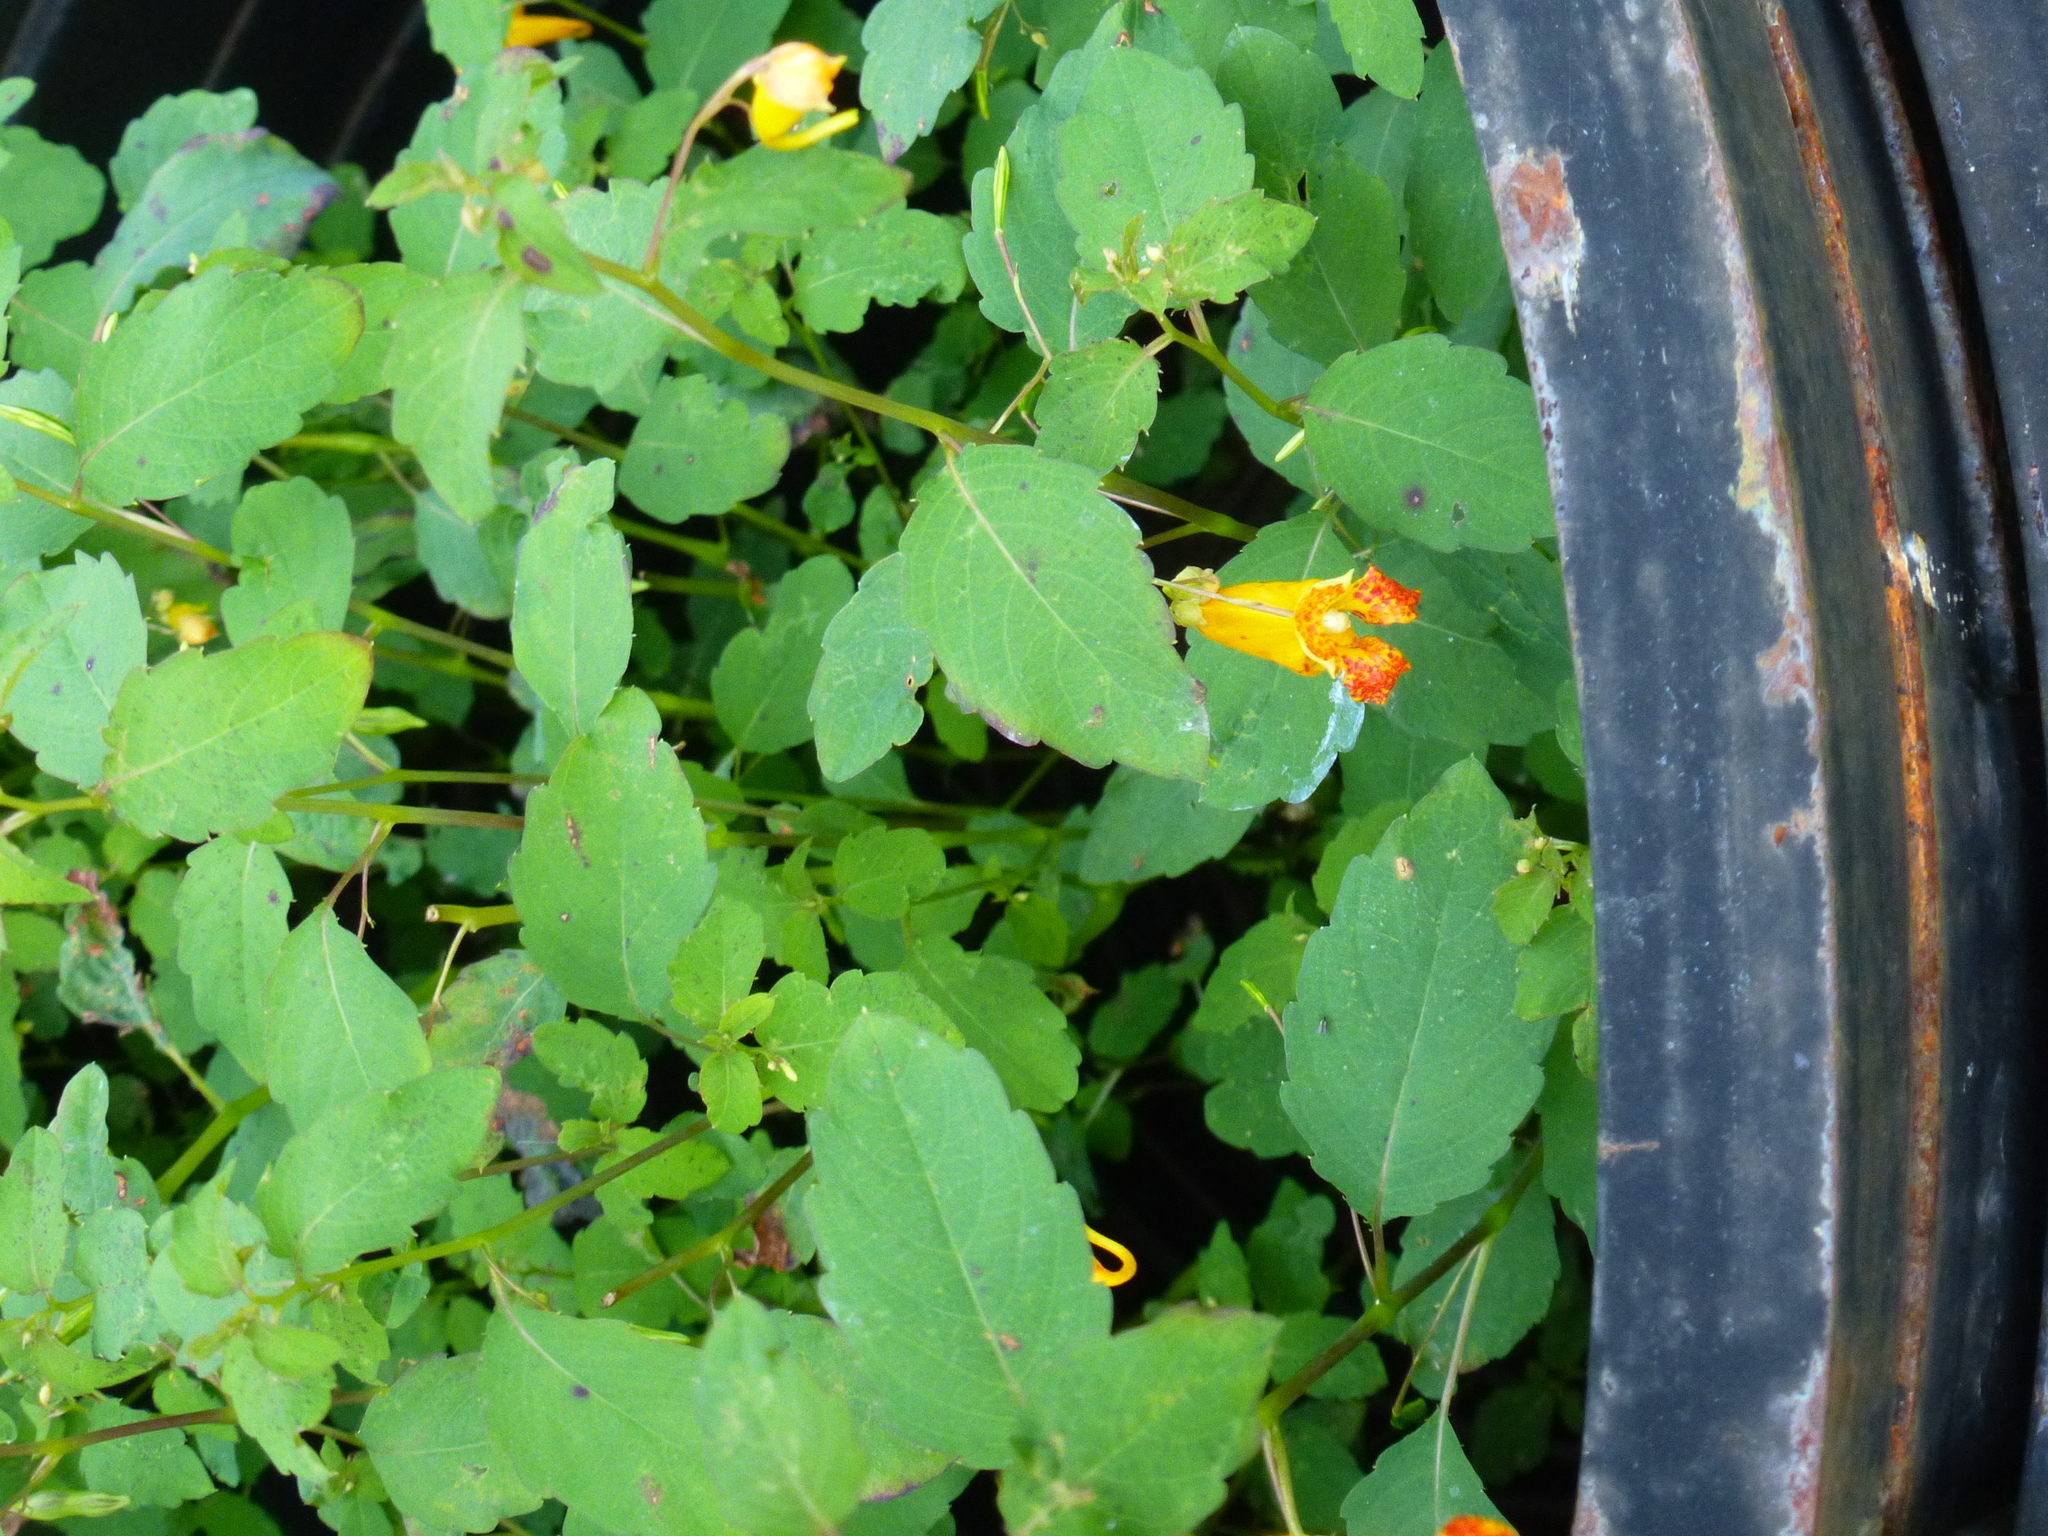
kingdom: Plantae
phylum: Tracheophyta
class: Magnoliopsida
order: Ericales
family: Balsaminaceae
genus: Impatiens
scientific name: Impatiens capensis
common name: Orange balsam
